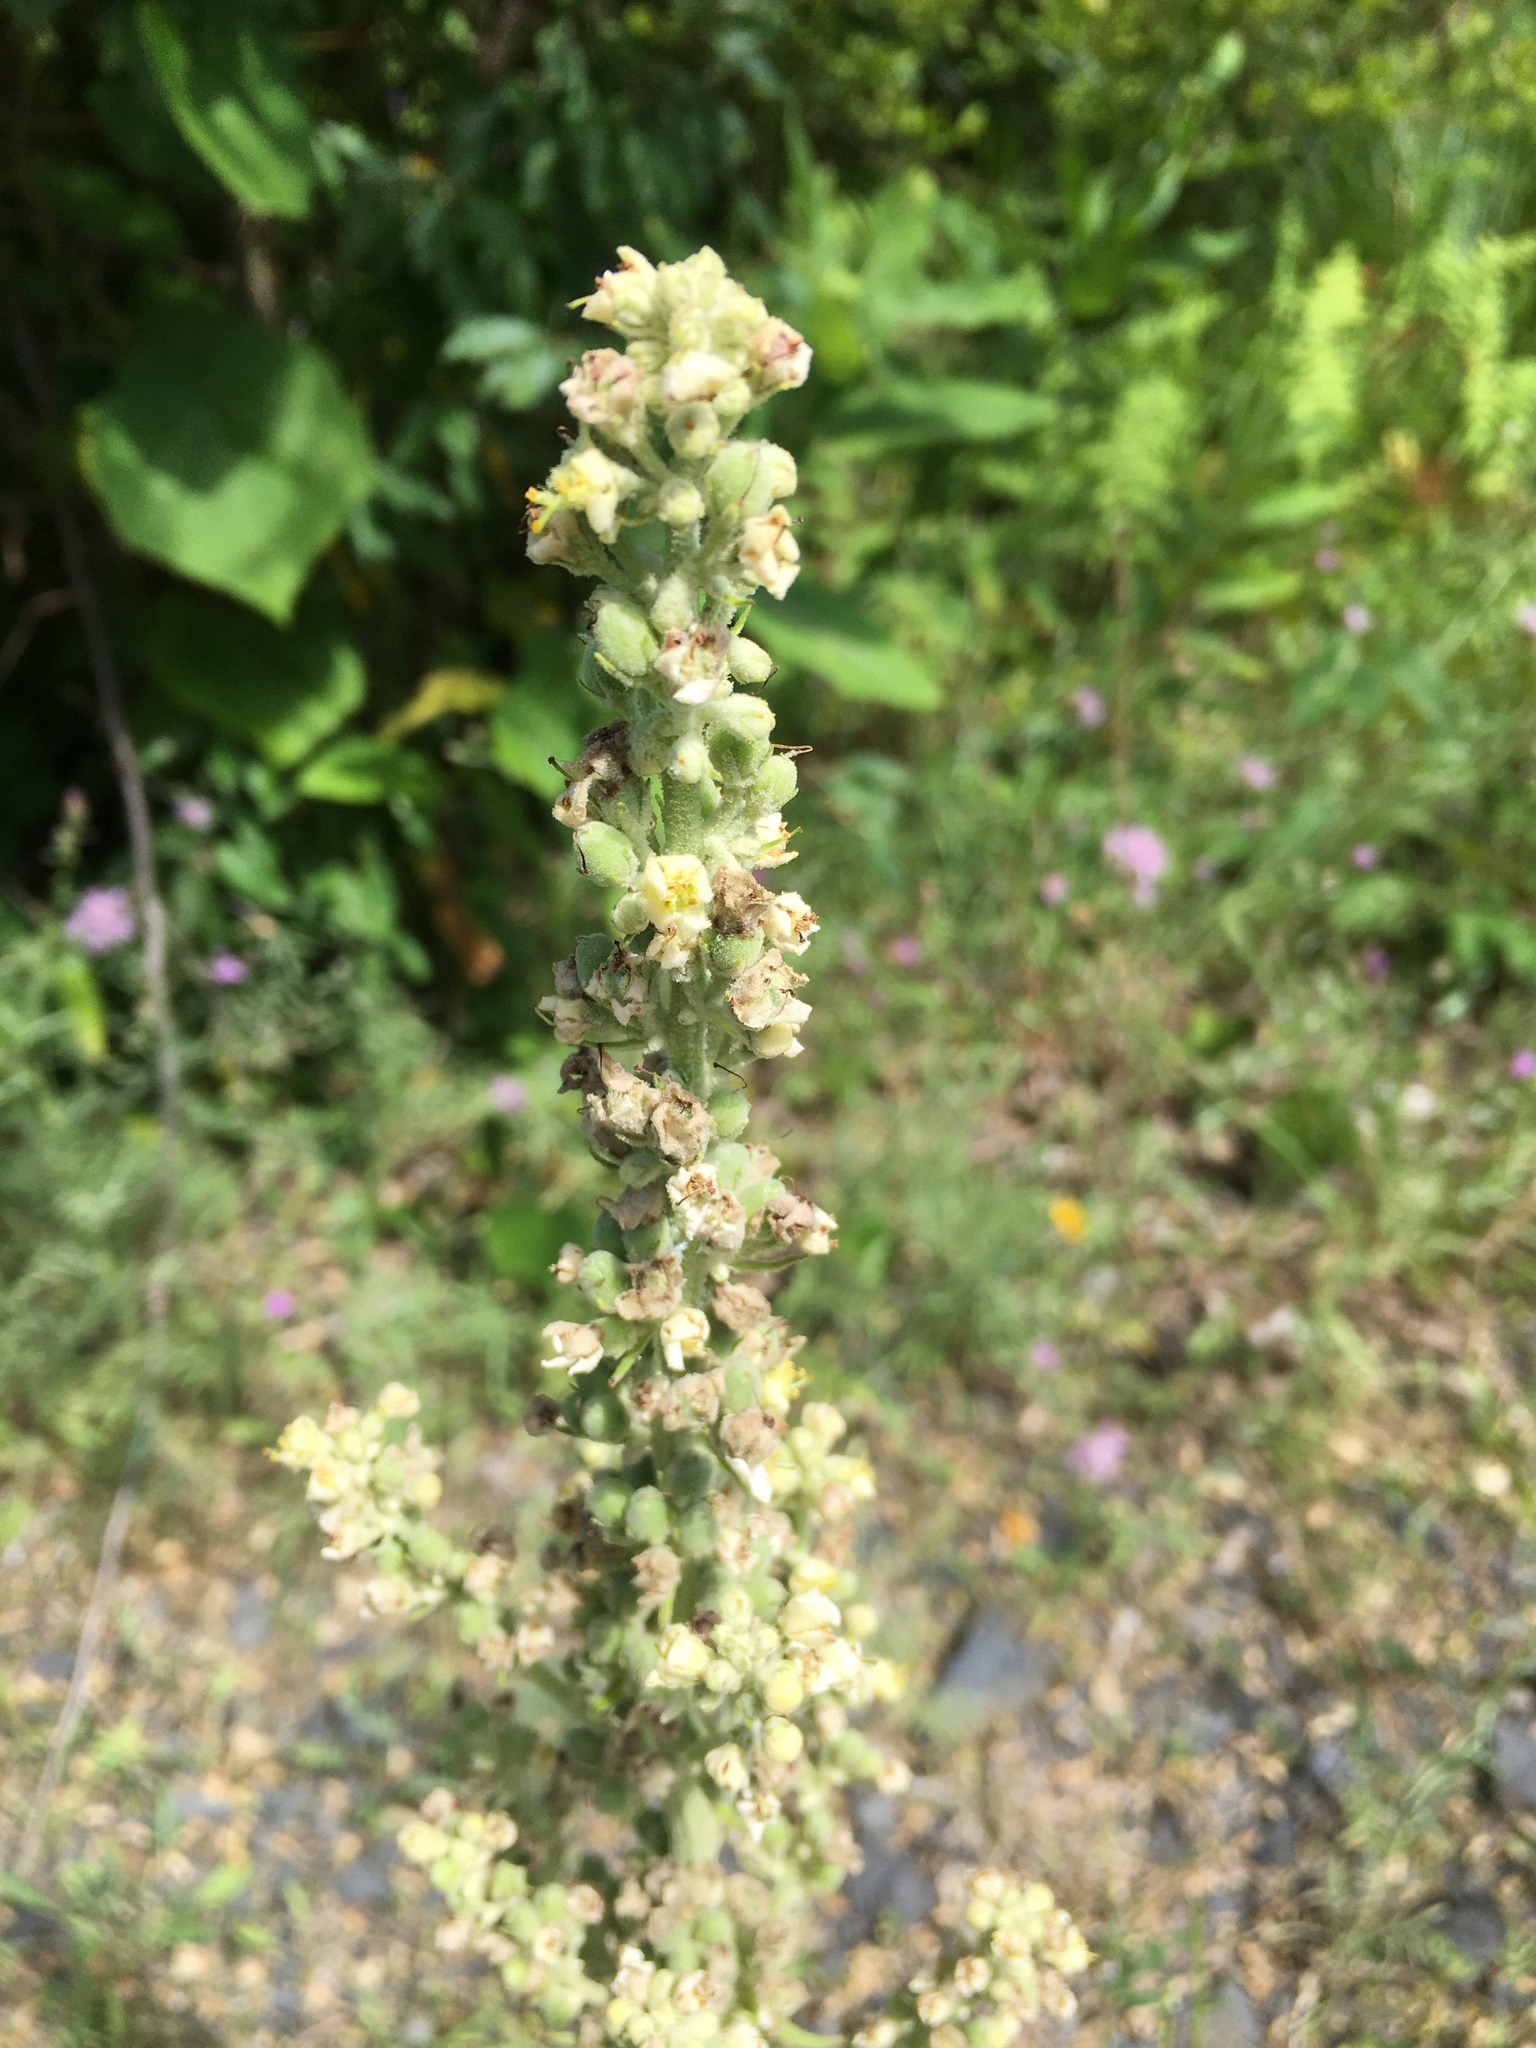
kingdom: Plantae
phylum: Tracheophyta
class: Magnoliopsida
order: Lamiales
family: Scrophulariaceae
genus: Verbascum
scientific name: Verbascum lychnitis
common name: White mullein
